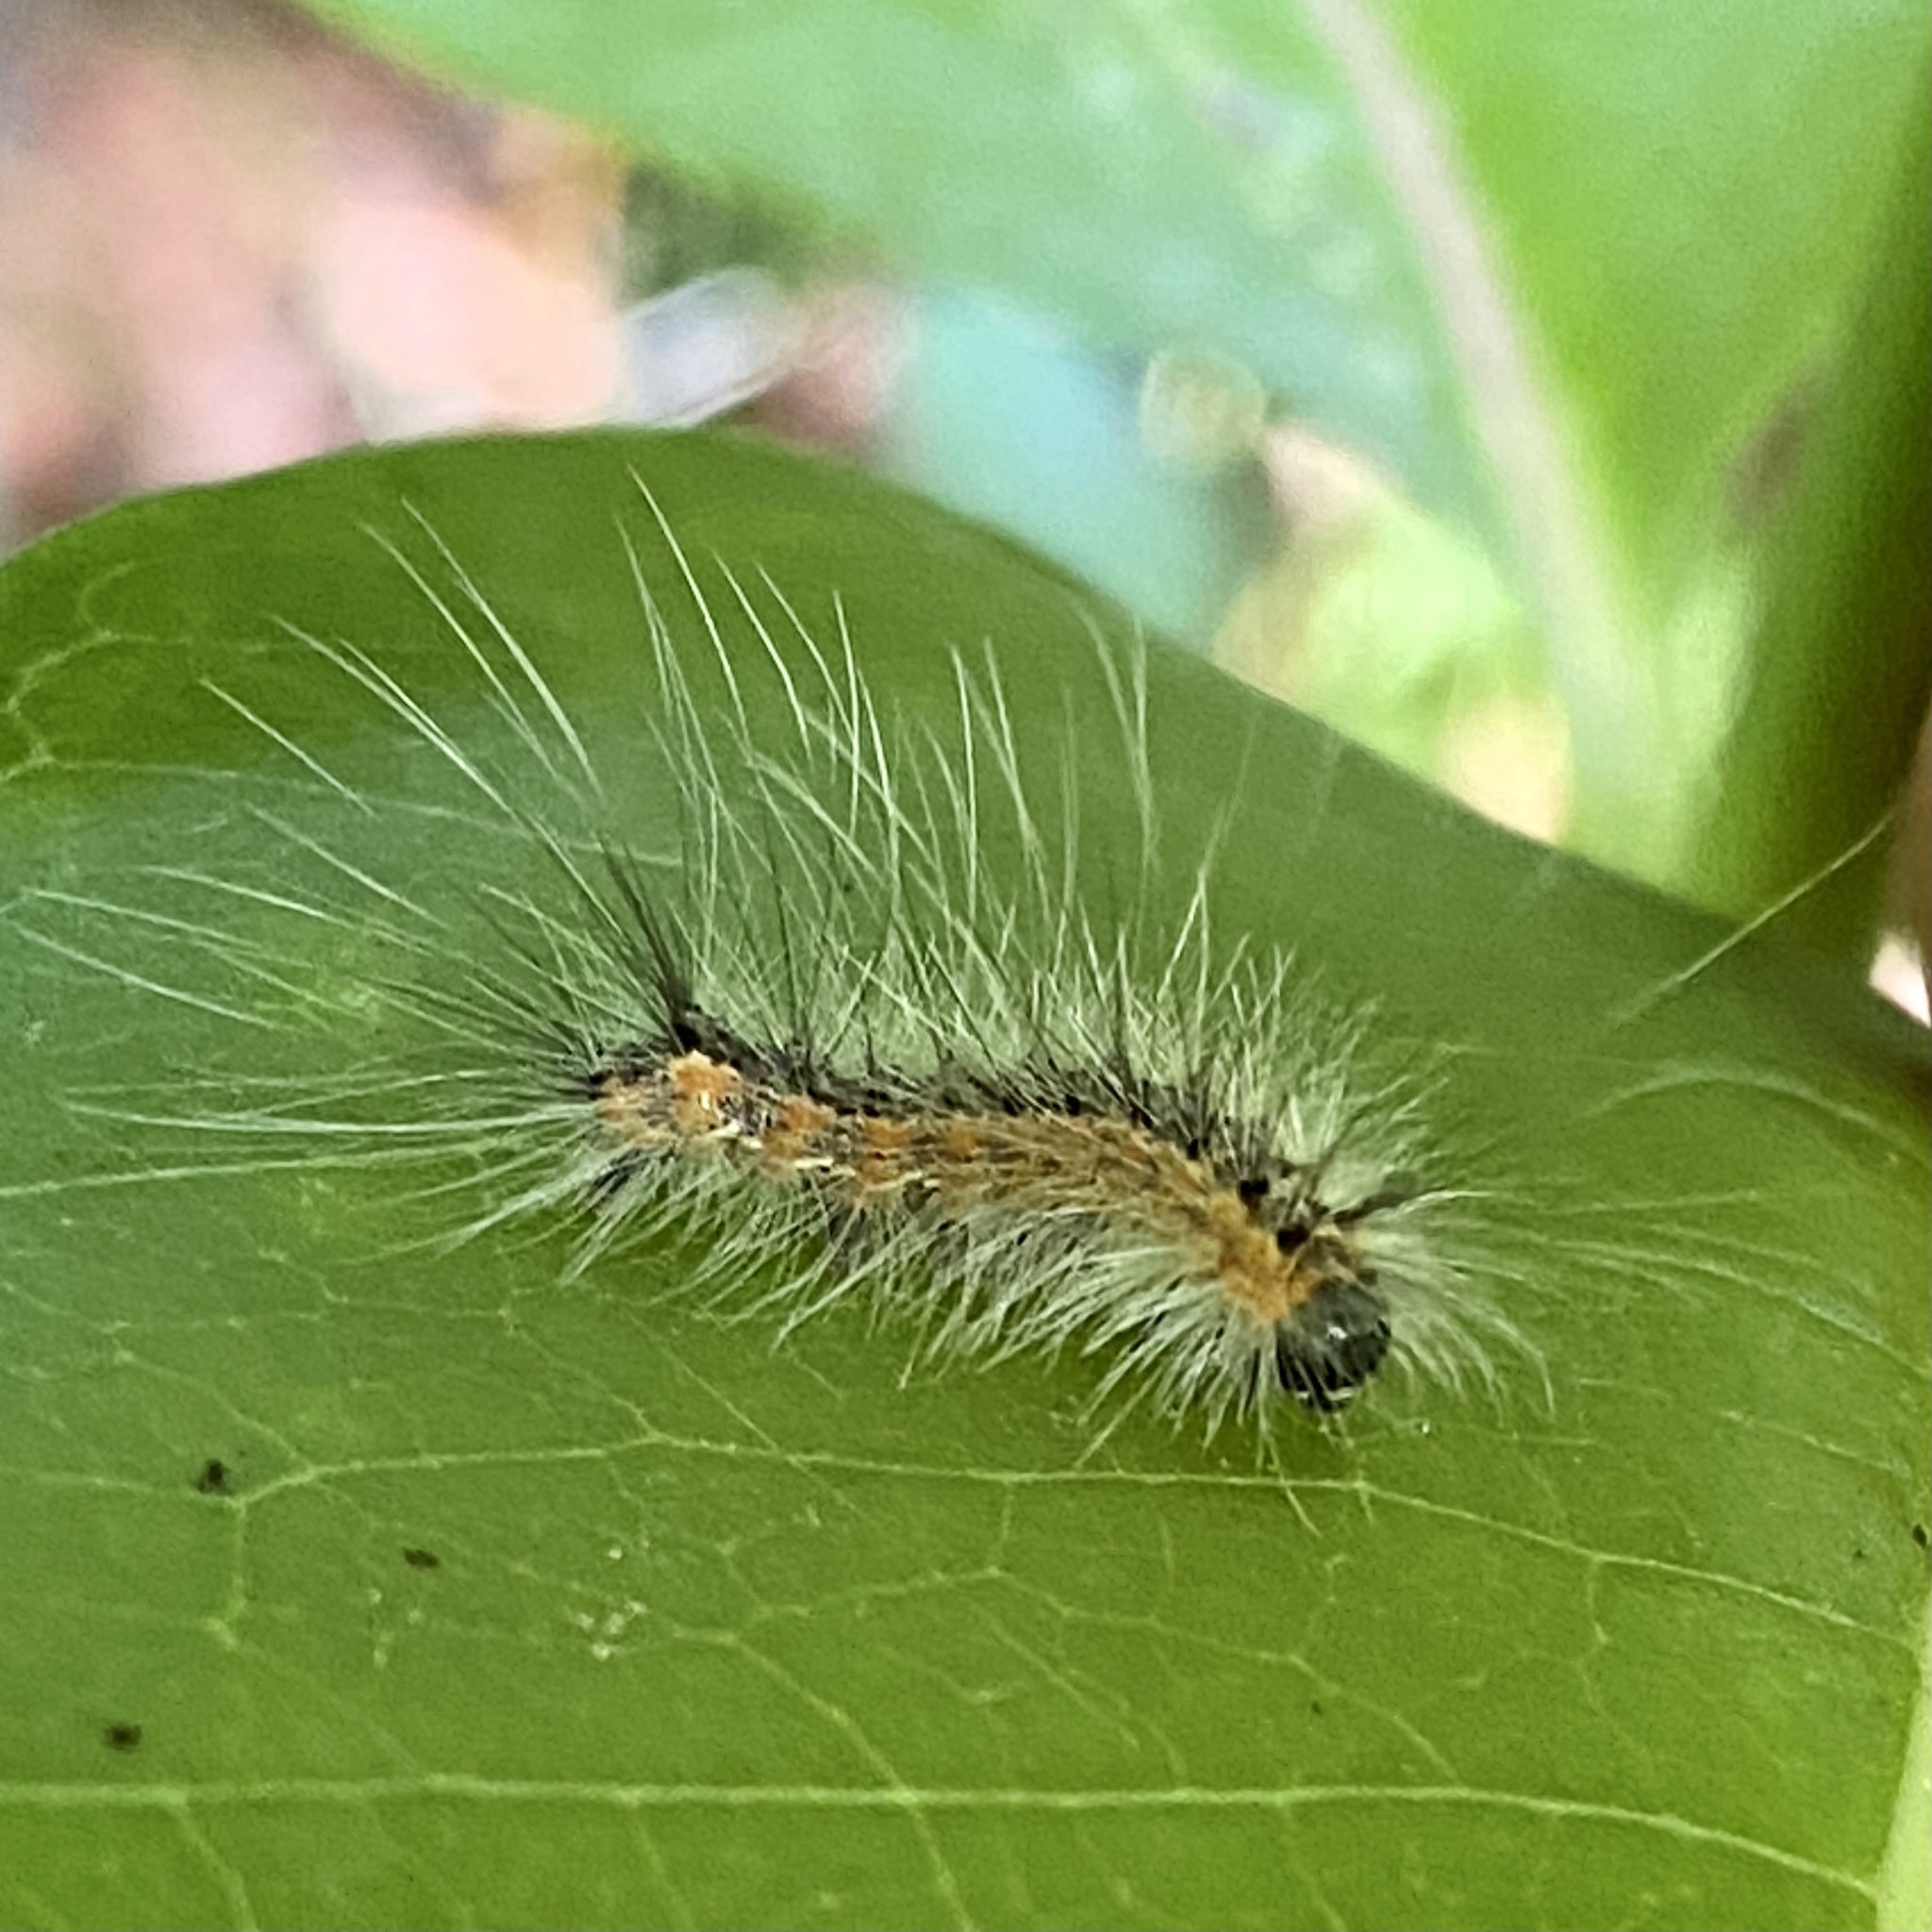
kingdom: Animalia
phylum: Arthropoda
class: Insecta
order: Lepidoptera
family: Erebidae
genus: Hyphantria
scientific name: Hyphantria cunea
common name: American white moth
